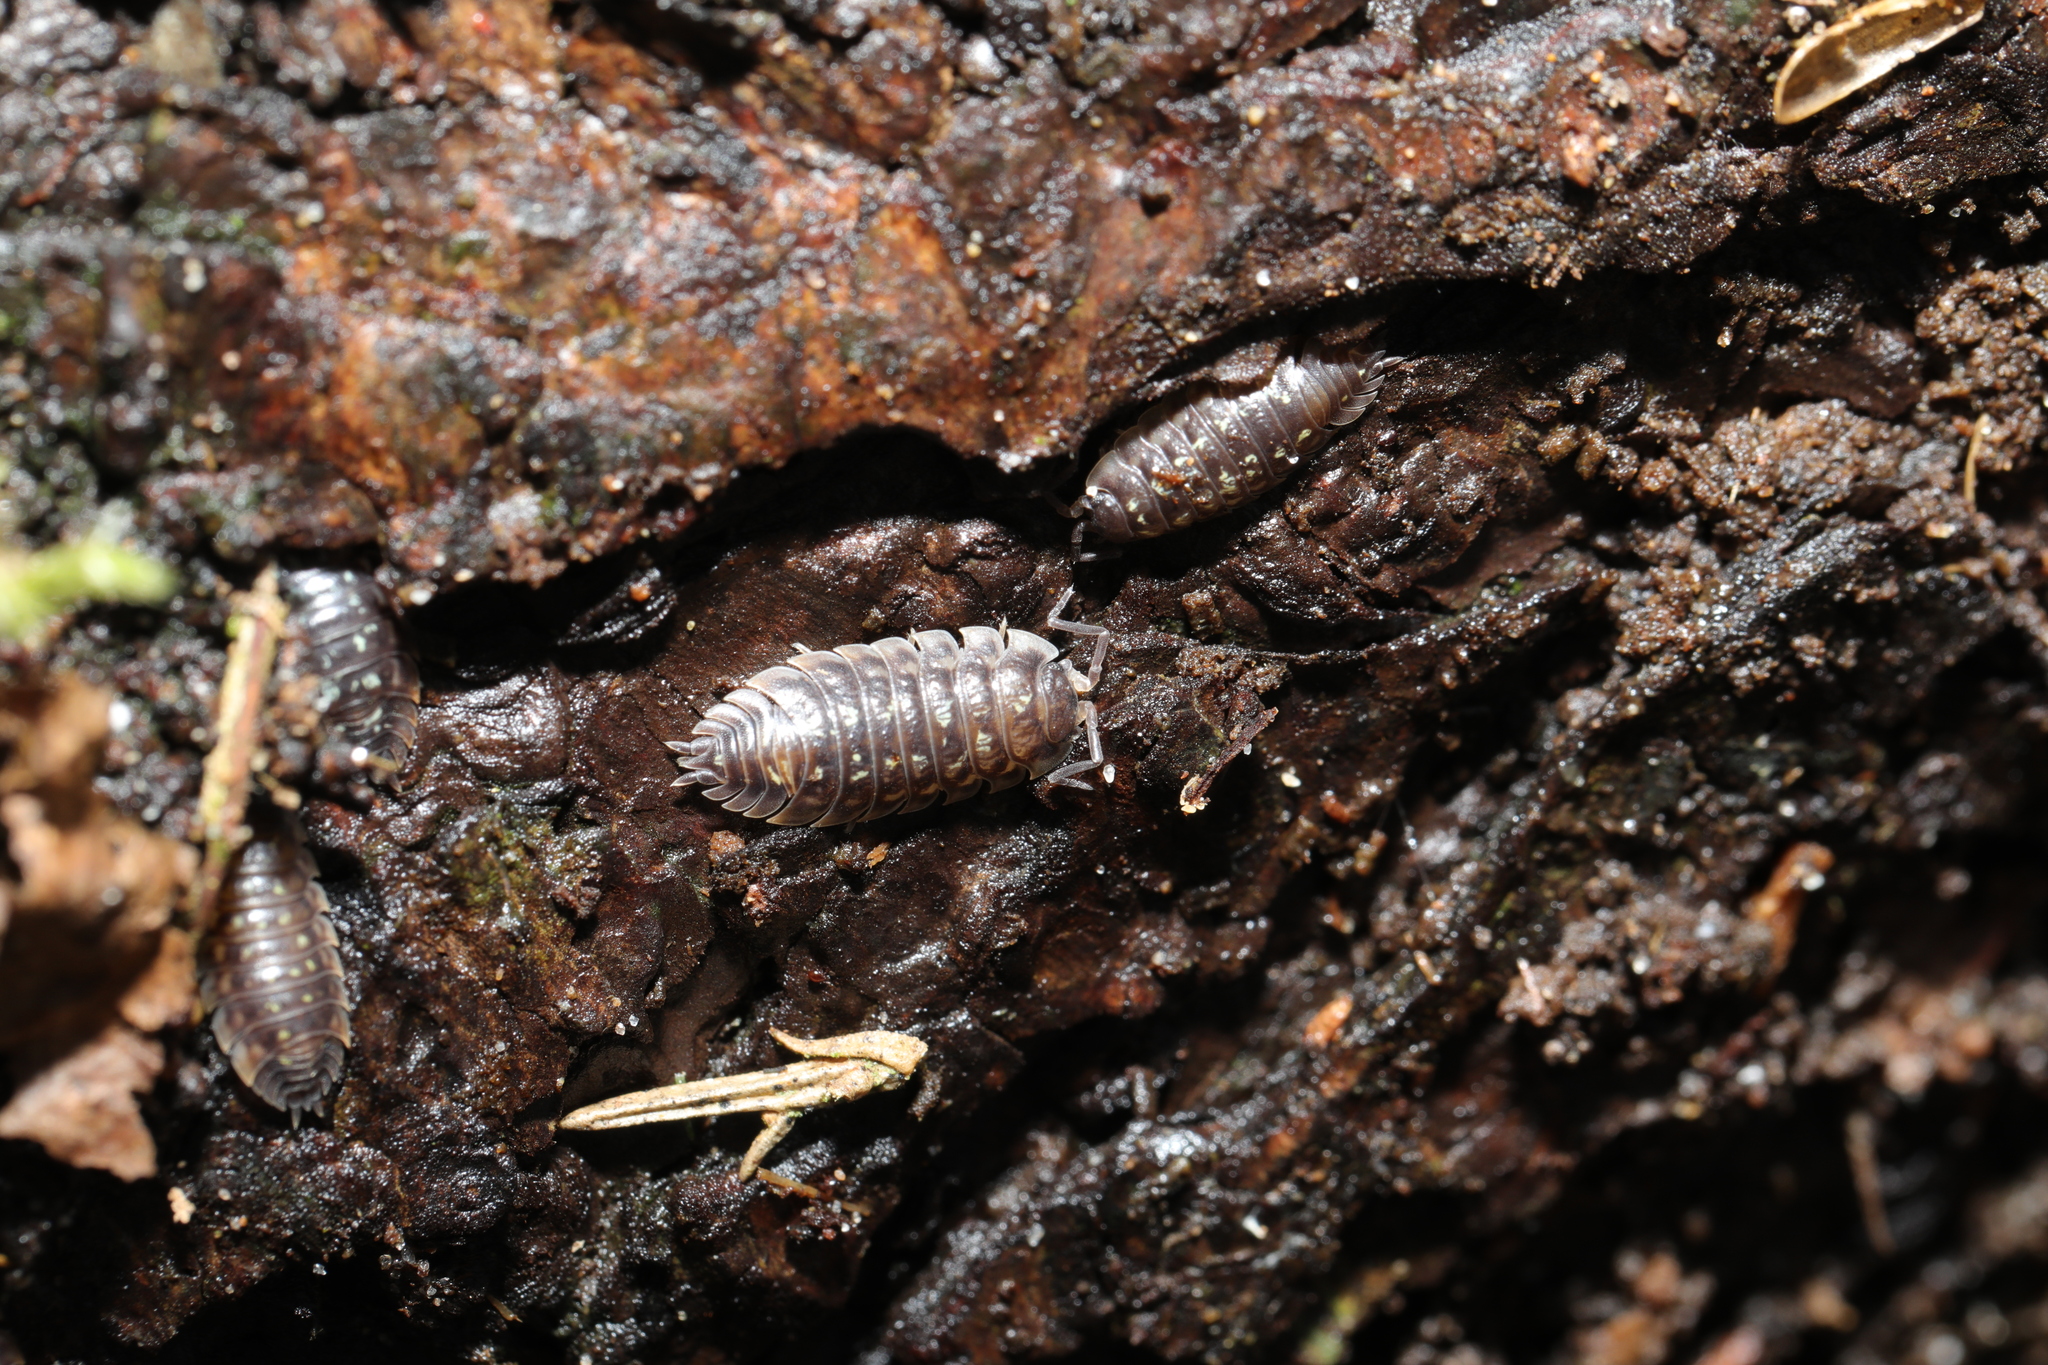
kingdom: Animalia
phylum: Arthropoda
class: Malacostraca
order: Isopoda
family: Oniscidae
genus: Oniscus
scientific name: Oniscus asellus
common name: Common shiny woodlouse
